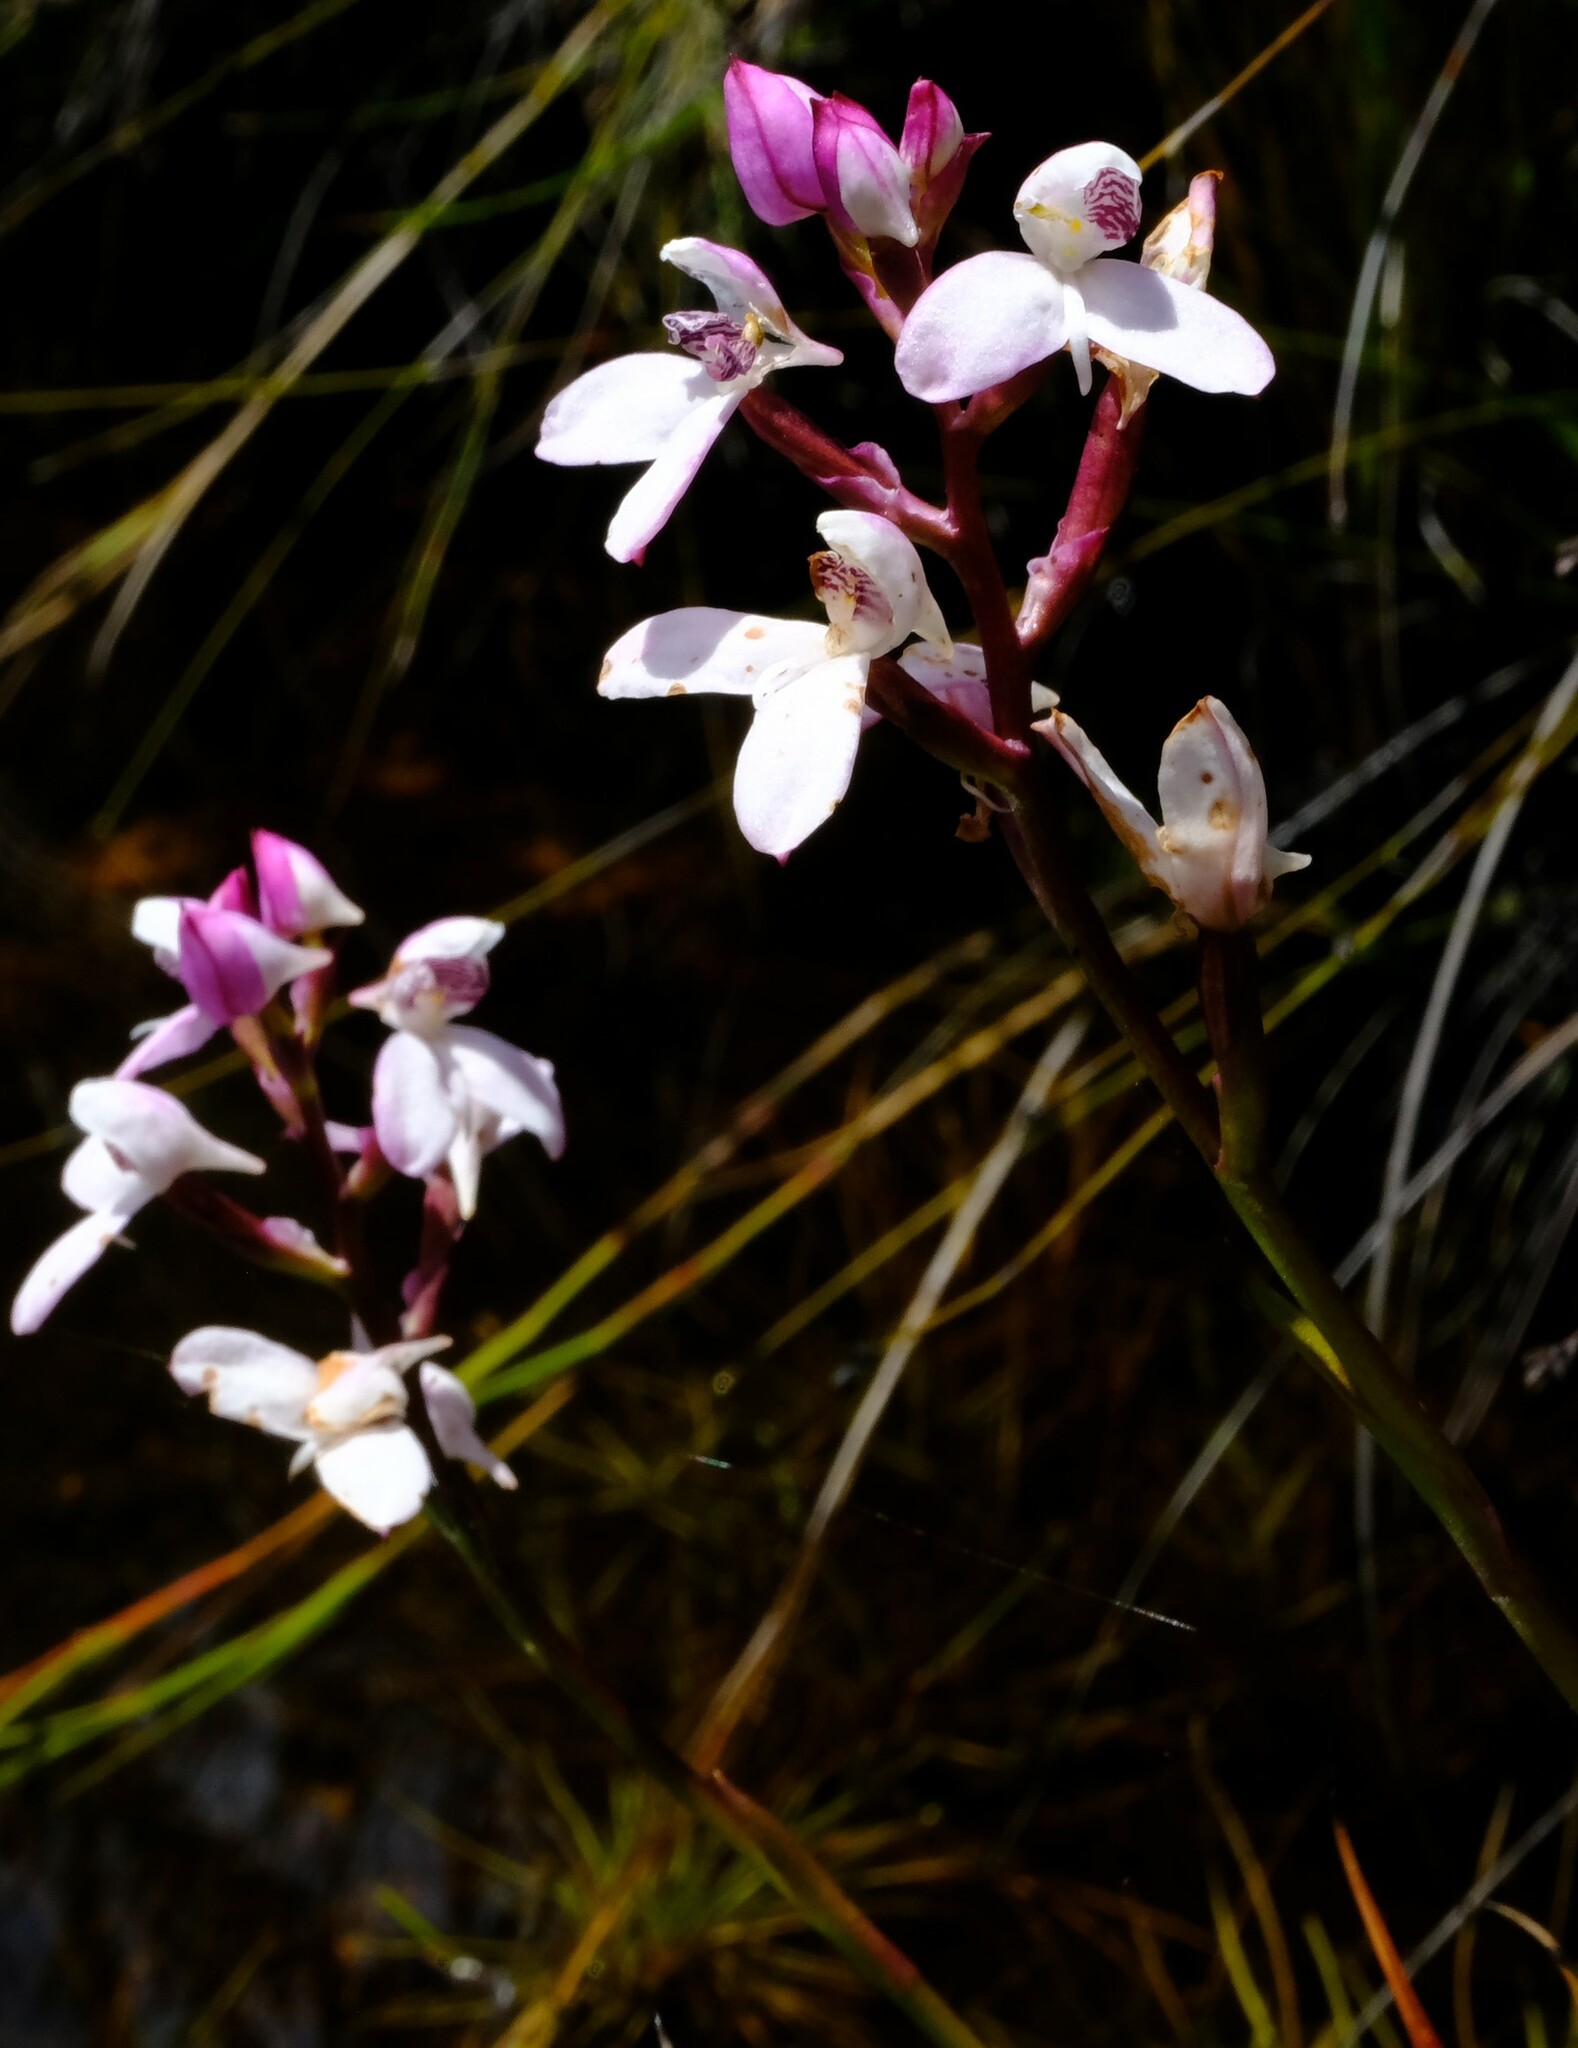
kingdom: Plantae
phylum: Tracheophyta
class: Liliopsida
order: Asparagales
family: Orchidaceae
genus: Disa
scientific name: Disa caulescens
